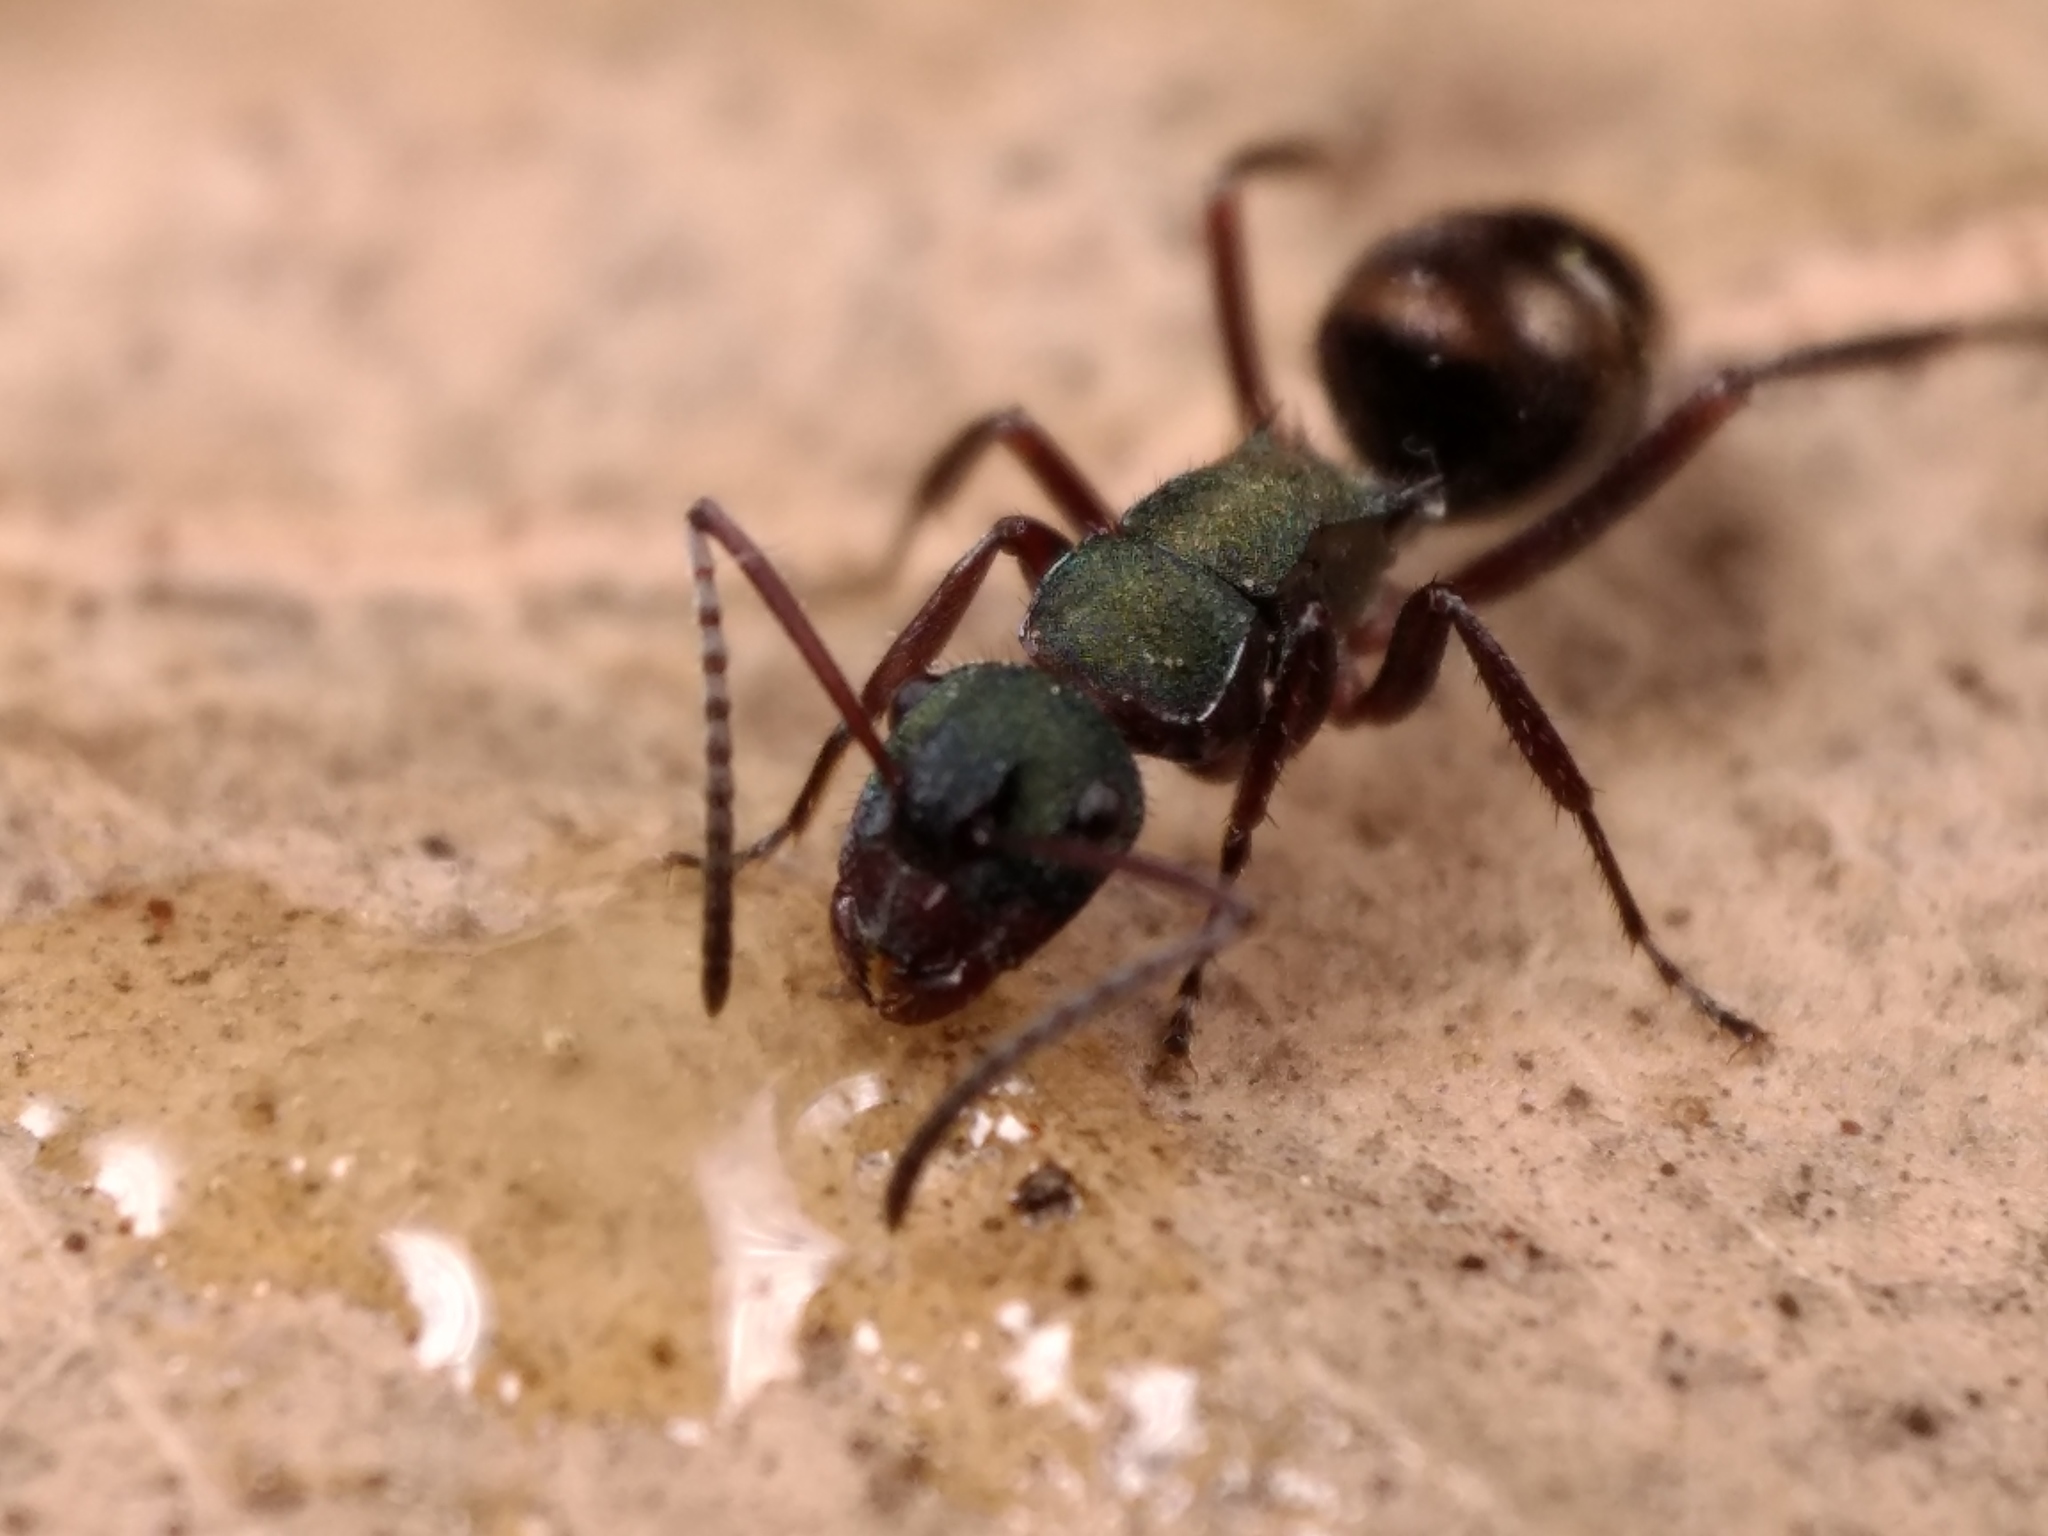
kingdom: Animalia
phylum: Arthropoda
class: Insecta
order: Hymenoptera
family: Formicidae
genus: Polyrhachis
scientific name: Polyrhachis lydiae
